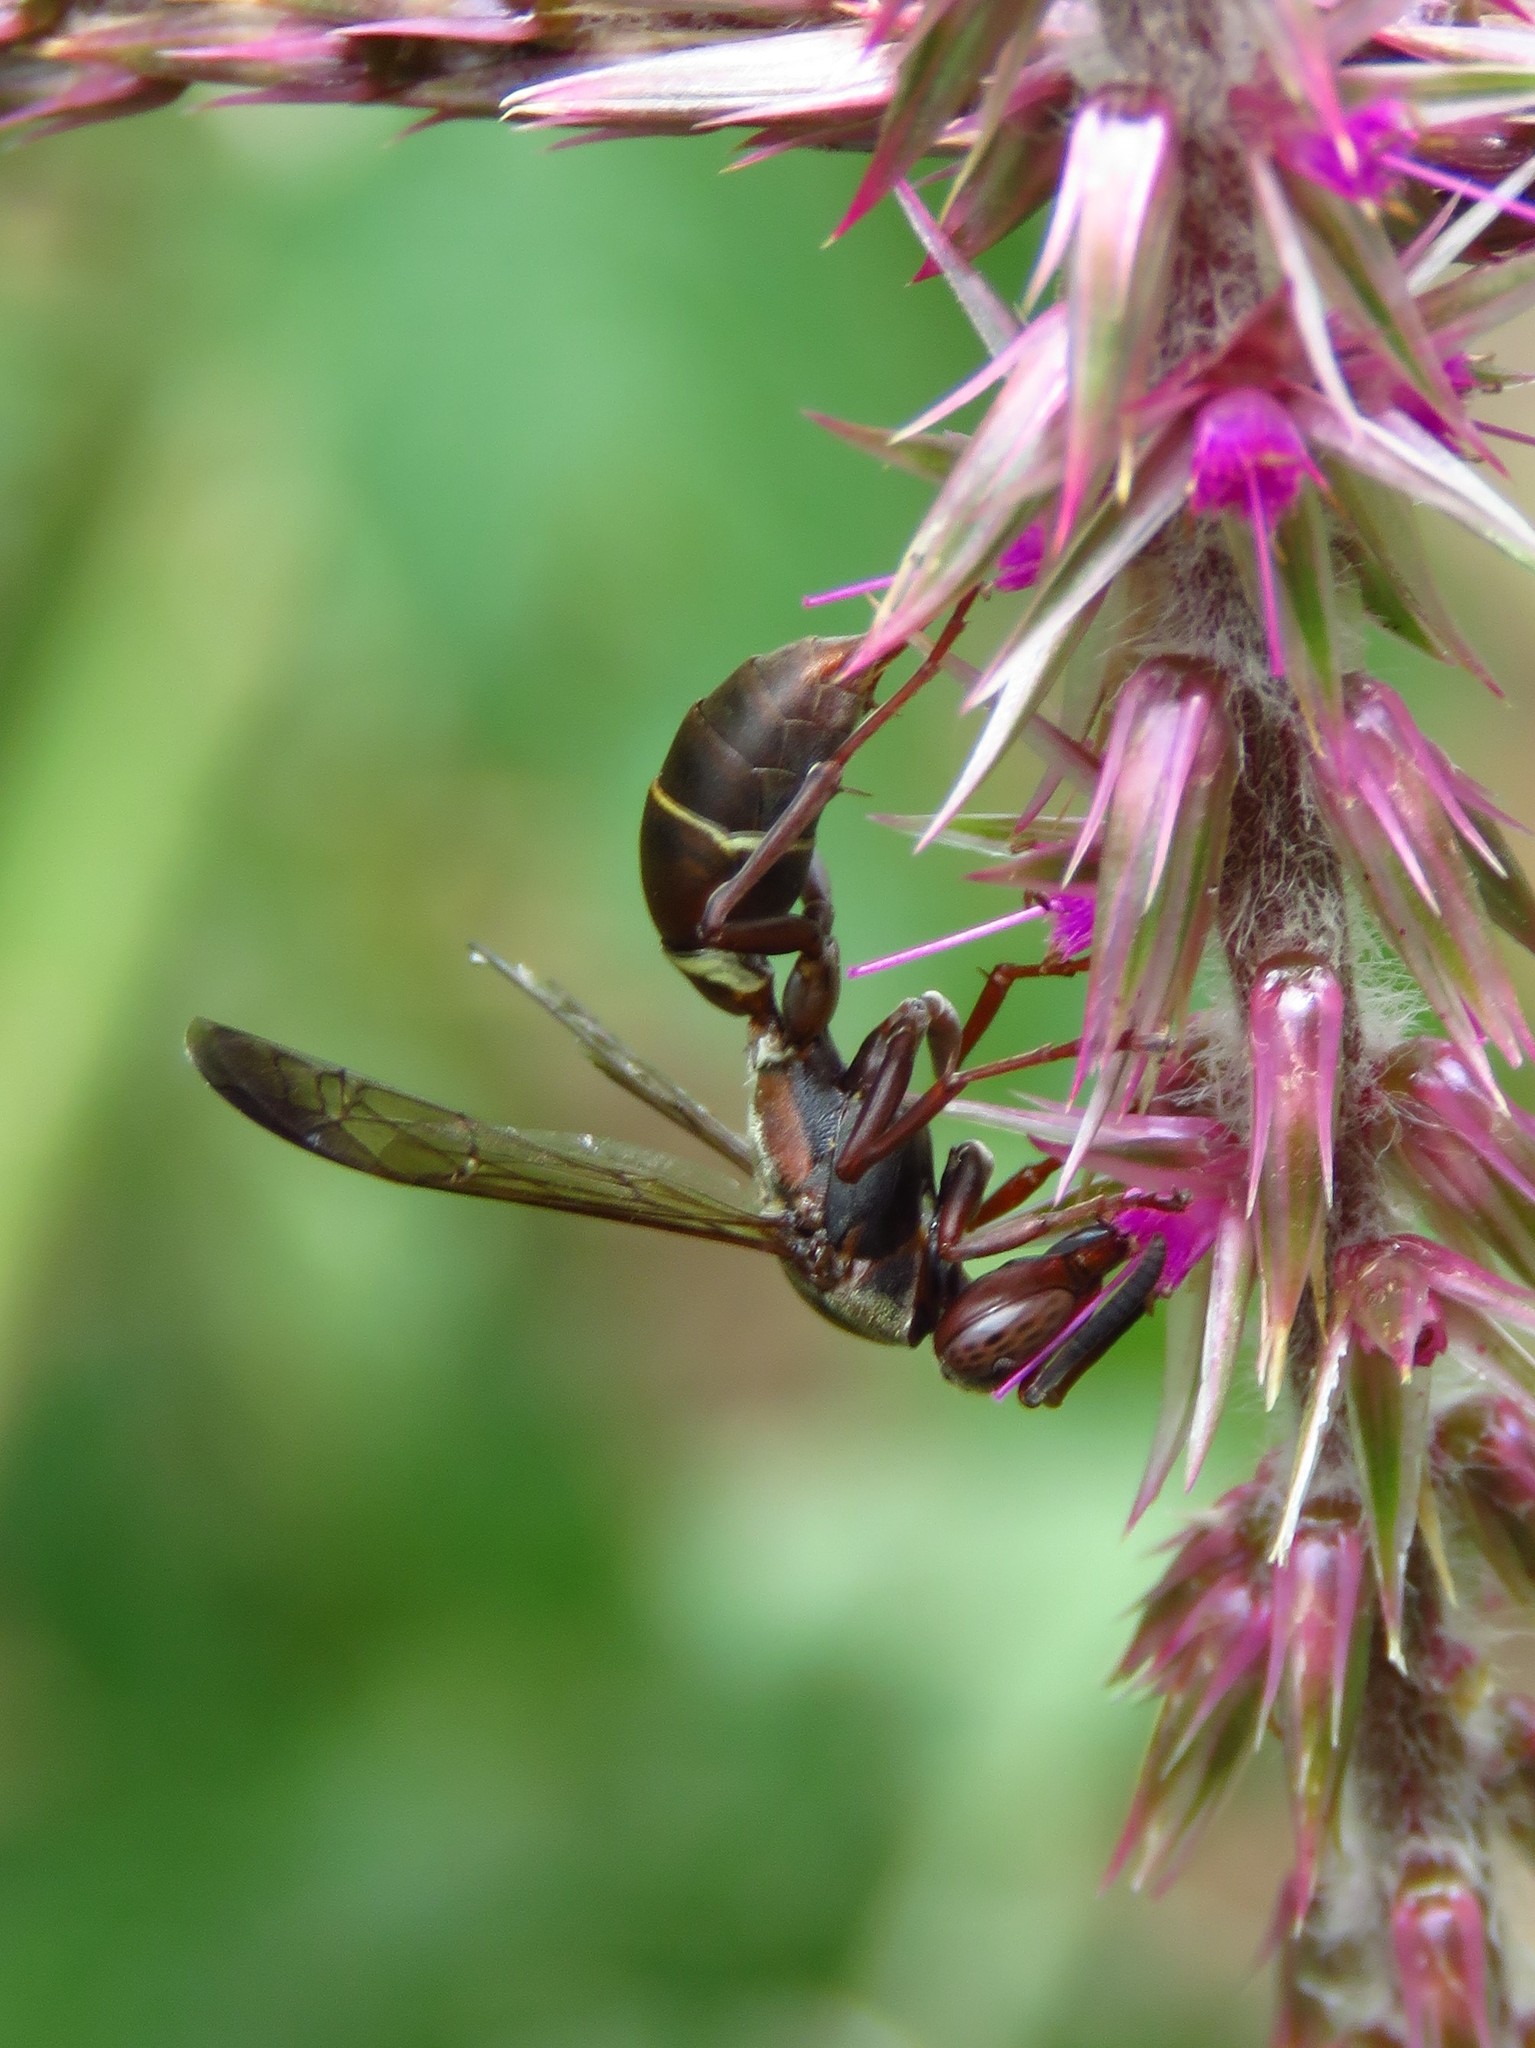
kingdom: Animalia
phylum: Arthropoda
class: Insecta
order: Hymenoptera
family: Eumenidae
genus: Polistes
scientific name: Polistes tenellus
